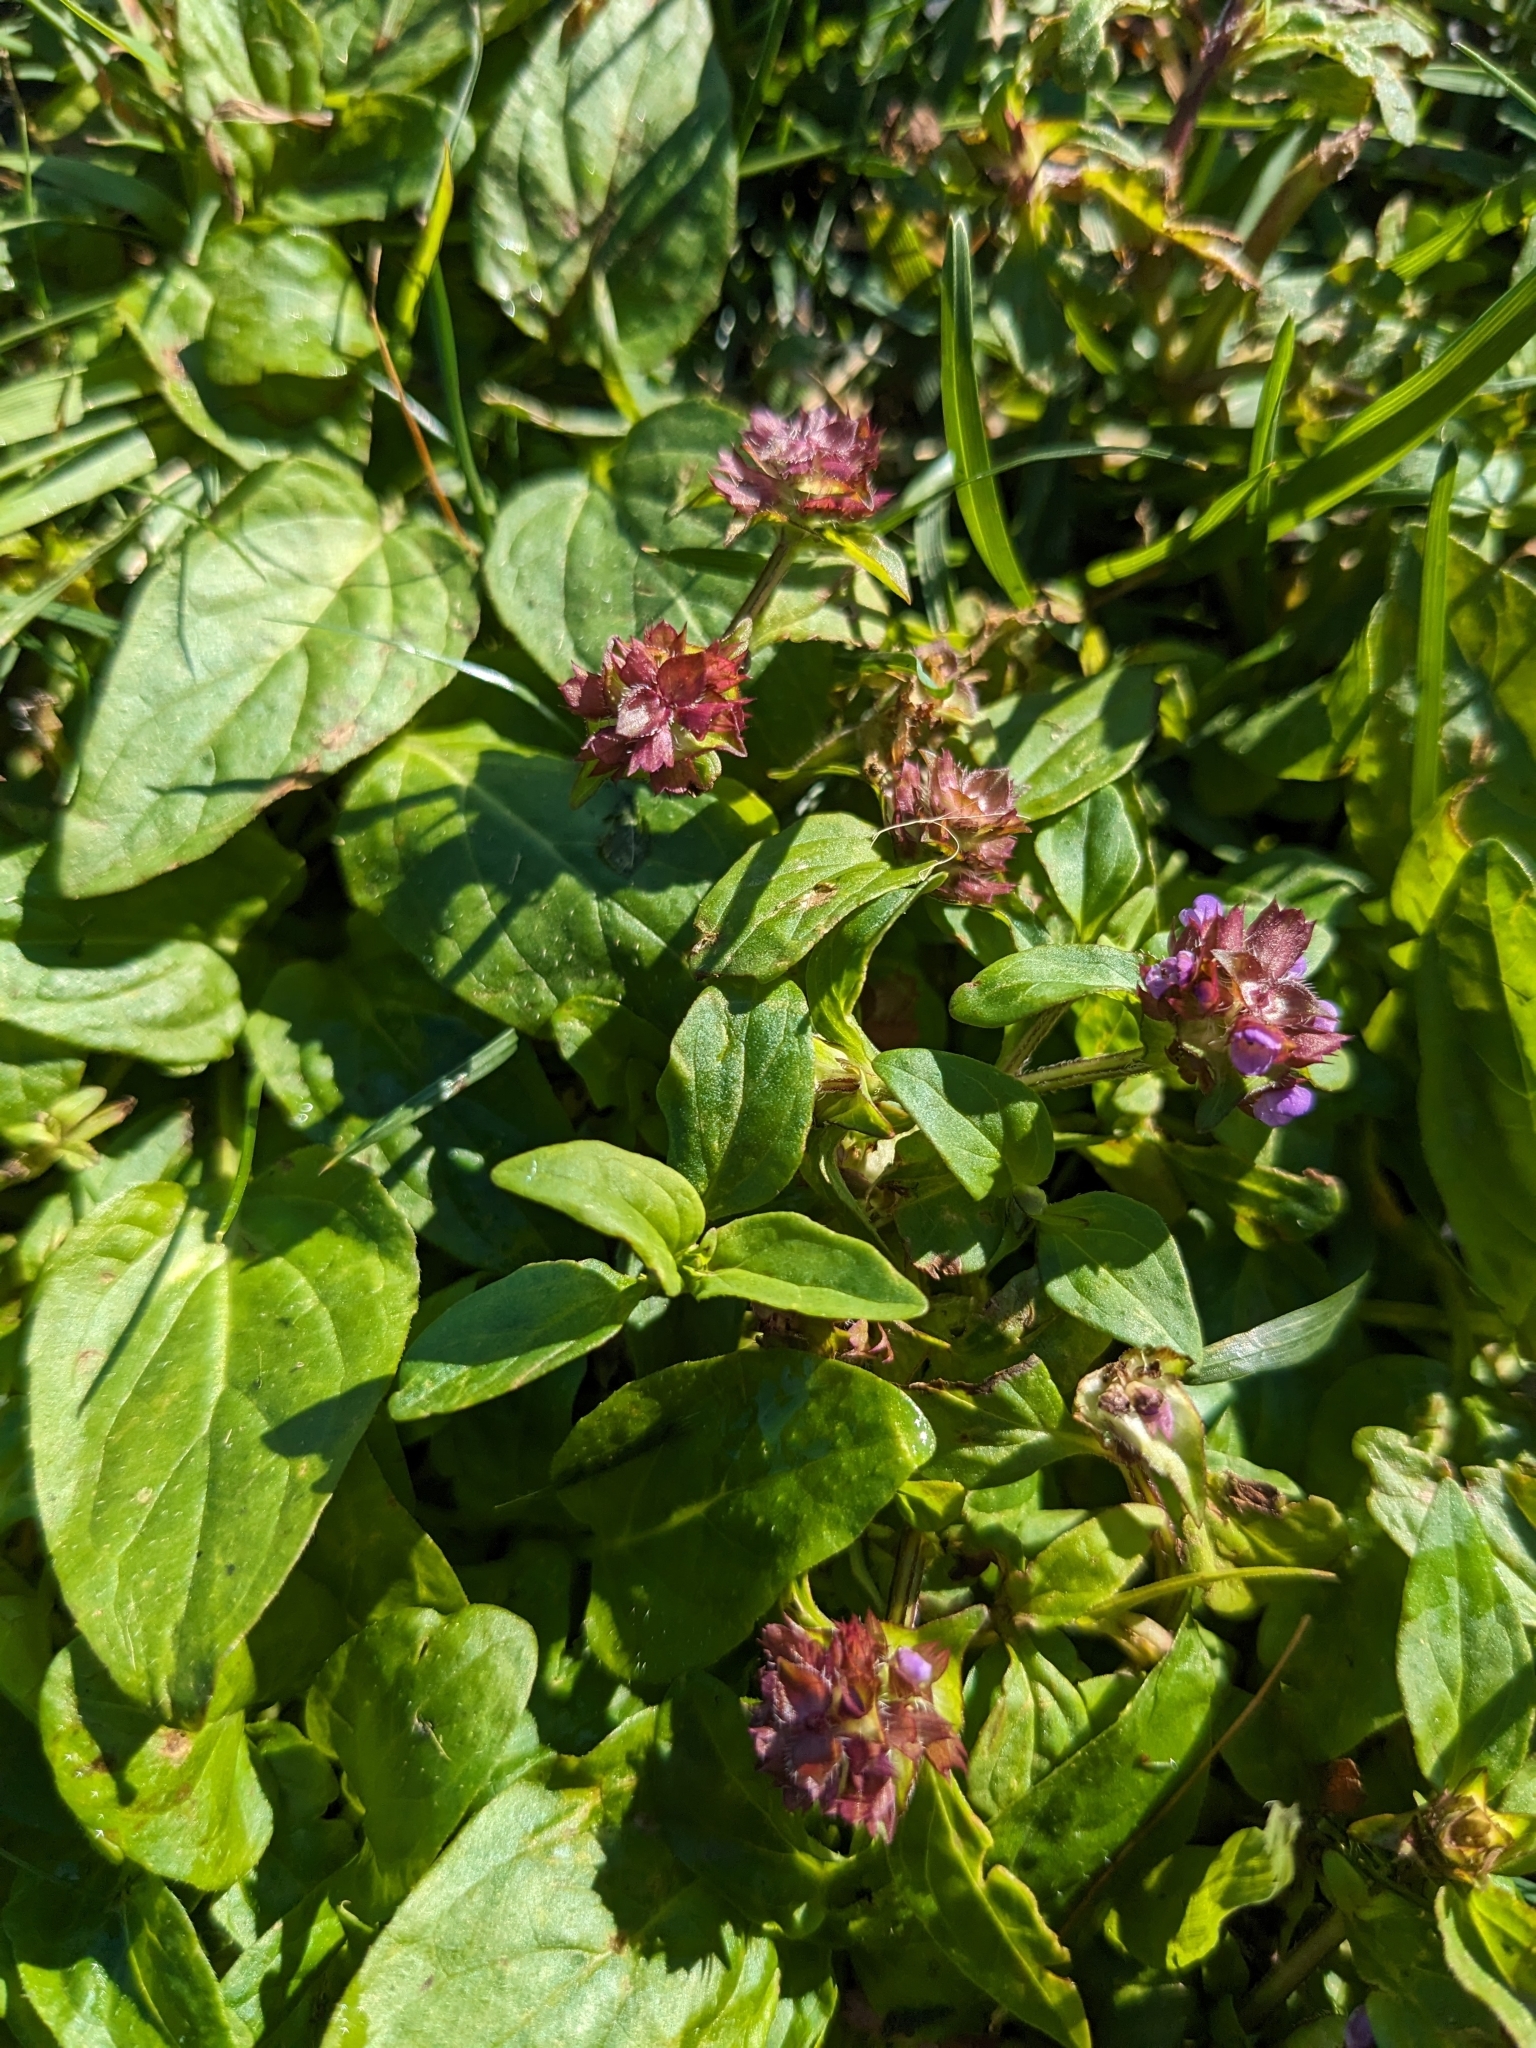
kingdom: Plantae
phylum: Tracheophyta
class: Magnoliopsida
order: Lamiales
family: Lamiaceae
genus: Prunella
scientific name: Prunella vulgaris
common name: Heal-all
